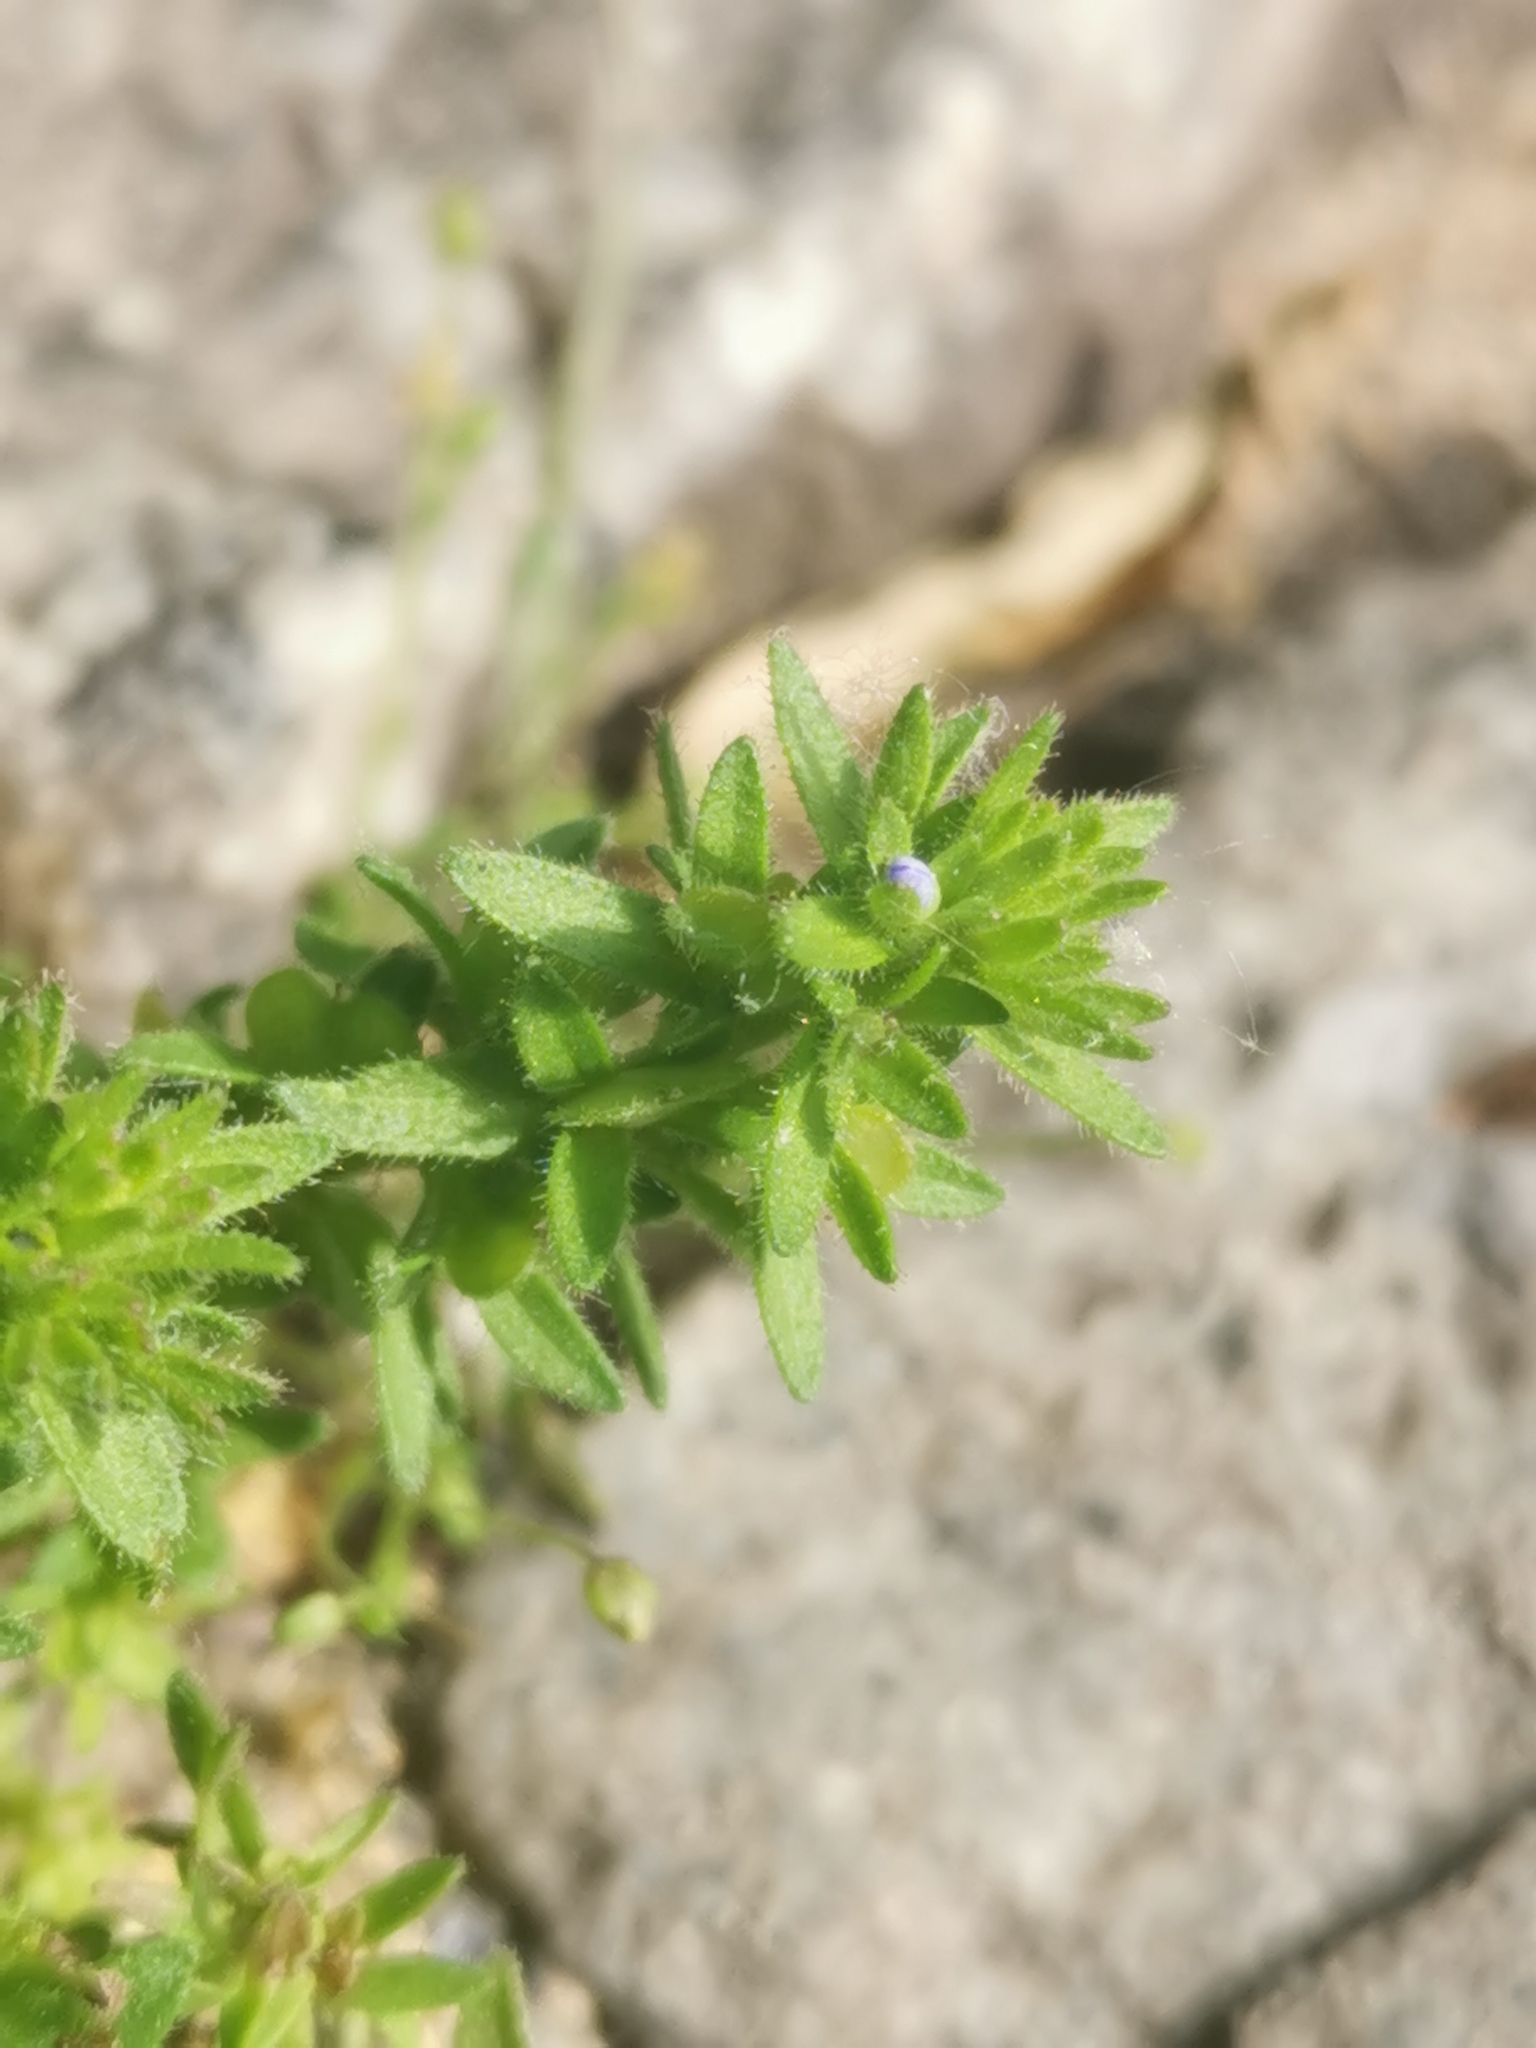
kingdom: Plantae
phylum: Tracheophyta
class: Magnoliopsida
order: Lamiales
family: Plantaginaceae
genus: Veronica
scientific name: Veronica arvensis
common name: Corn speedwell
